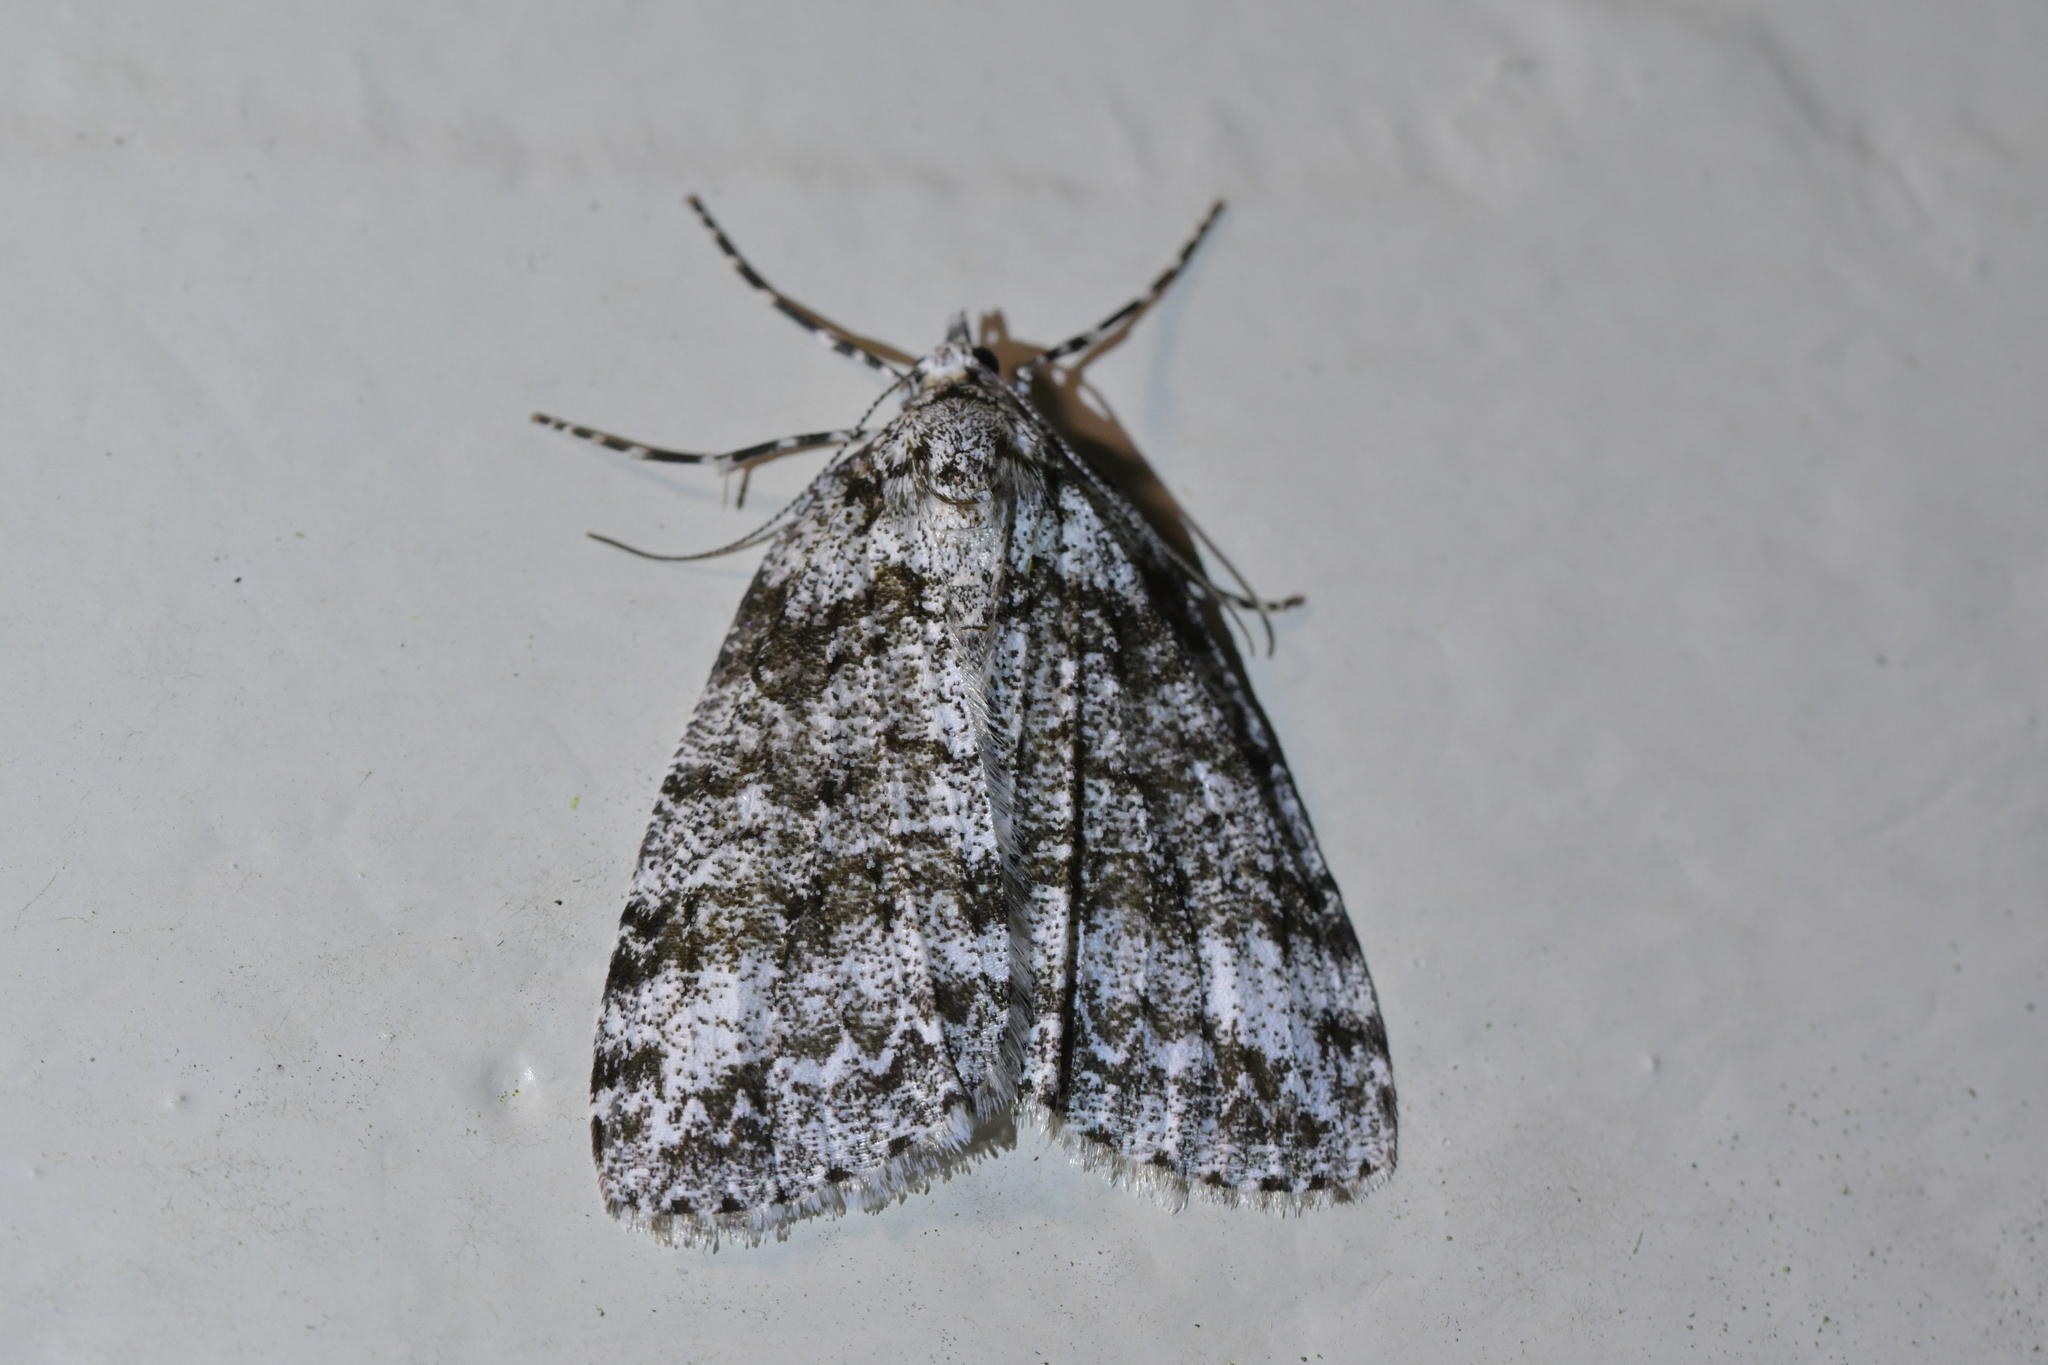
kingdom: Animalia
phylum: Arthropoda
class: Insecta
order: Lepidoptera
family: Geometridae
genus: Pseudocoremia
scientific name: Pseudocoremia fenerata
